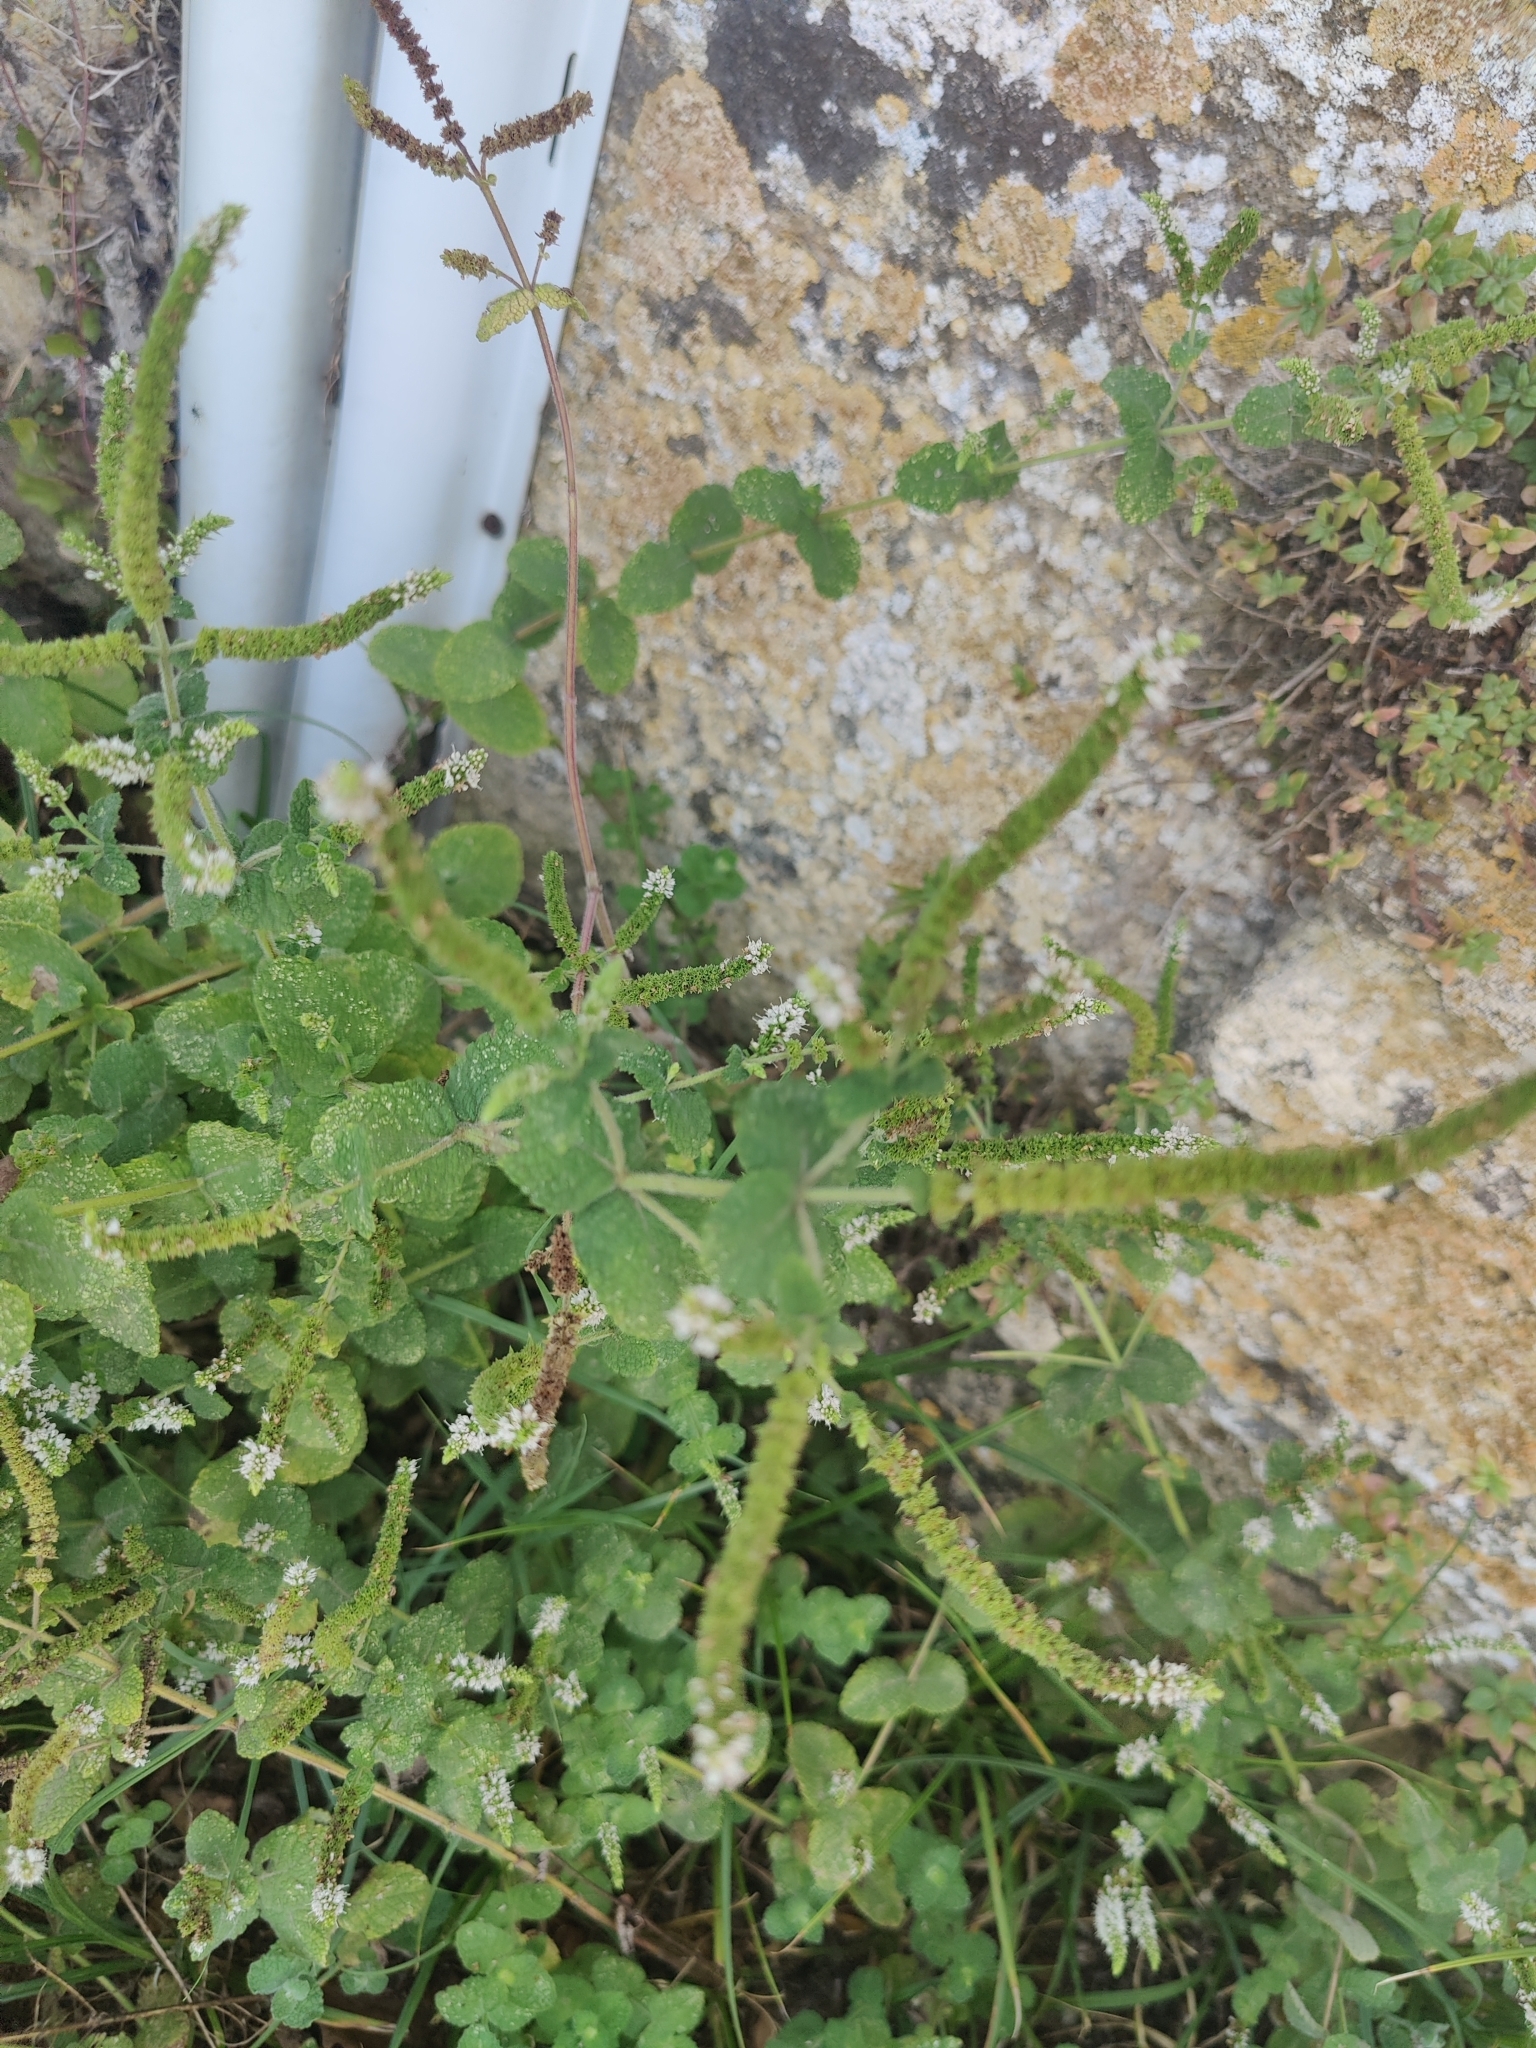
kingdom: Plantae
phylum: Tracheophyta
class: Magnoliopsida
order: Lamiales
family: Lamiaceae
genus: Mentha
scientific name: Mentha suaveolens
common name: Apple mint
